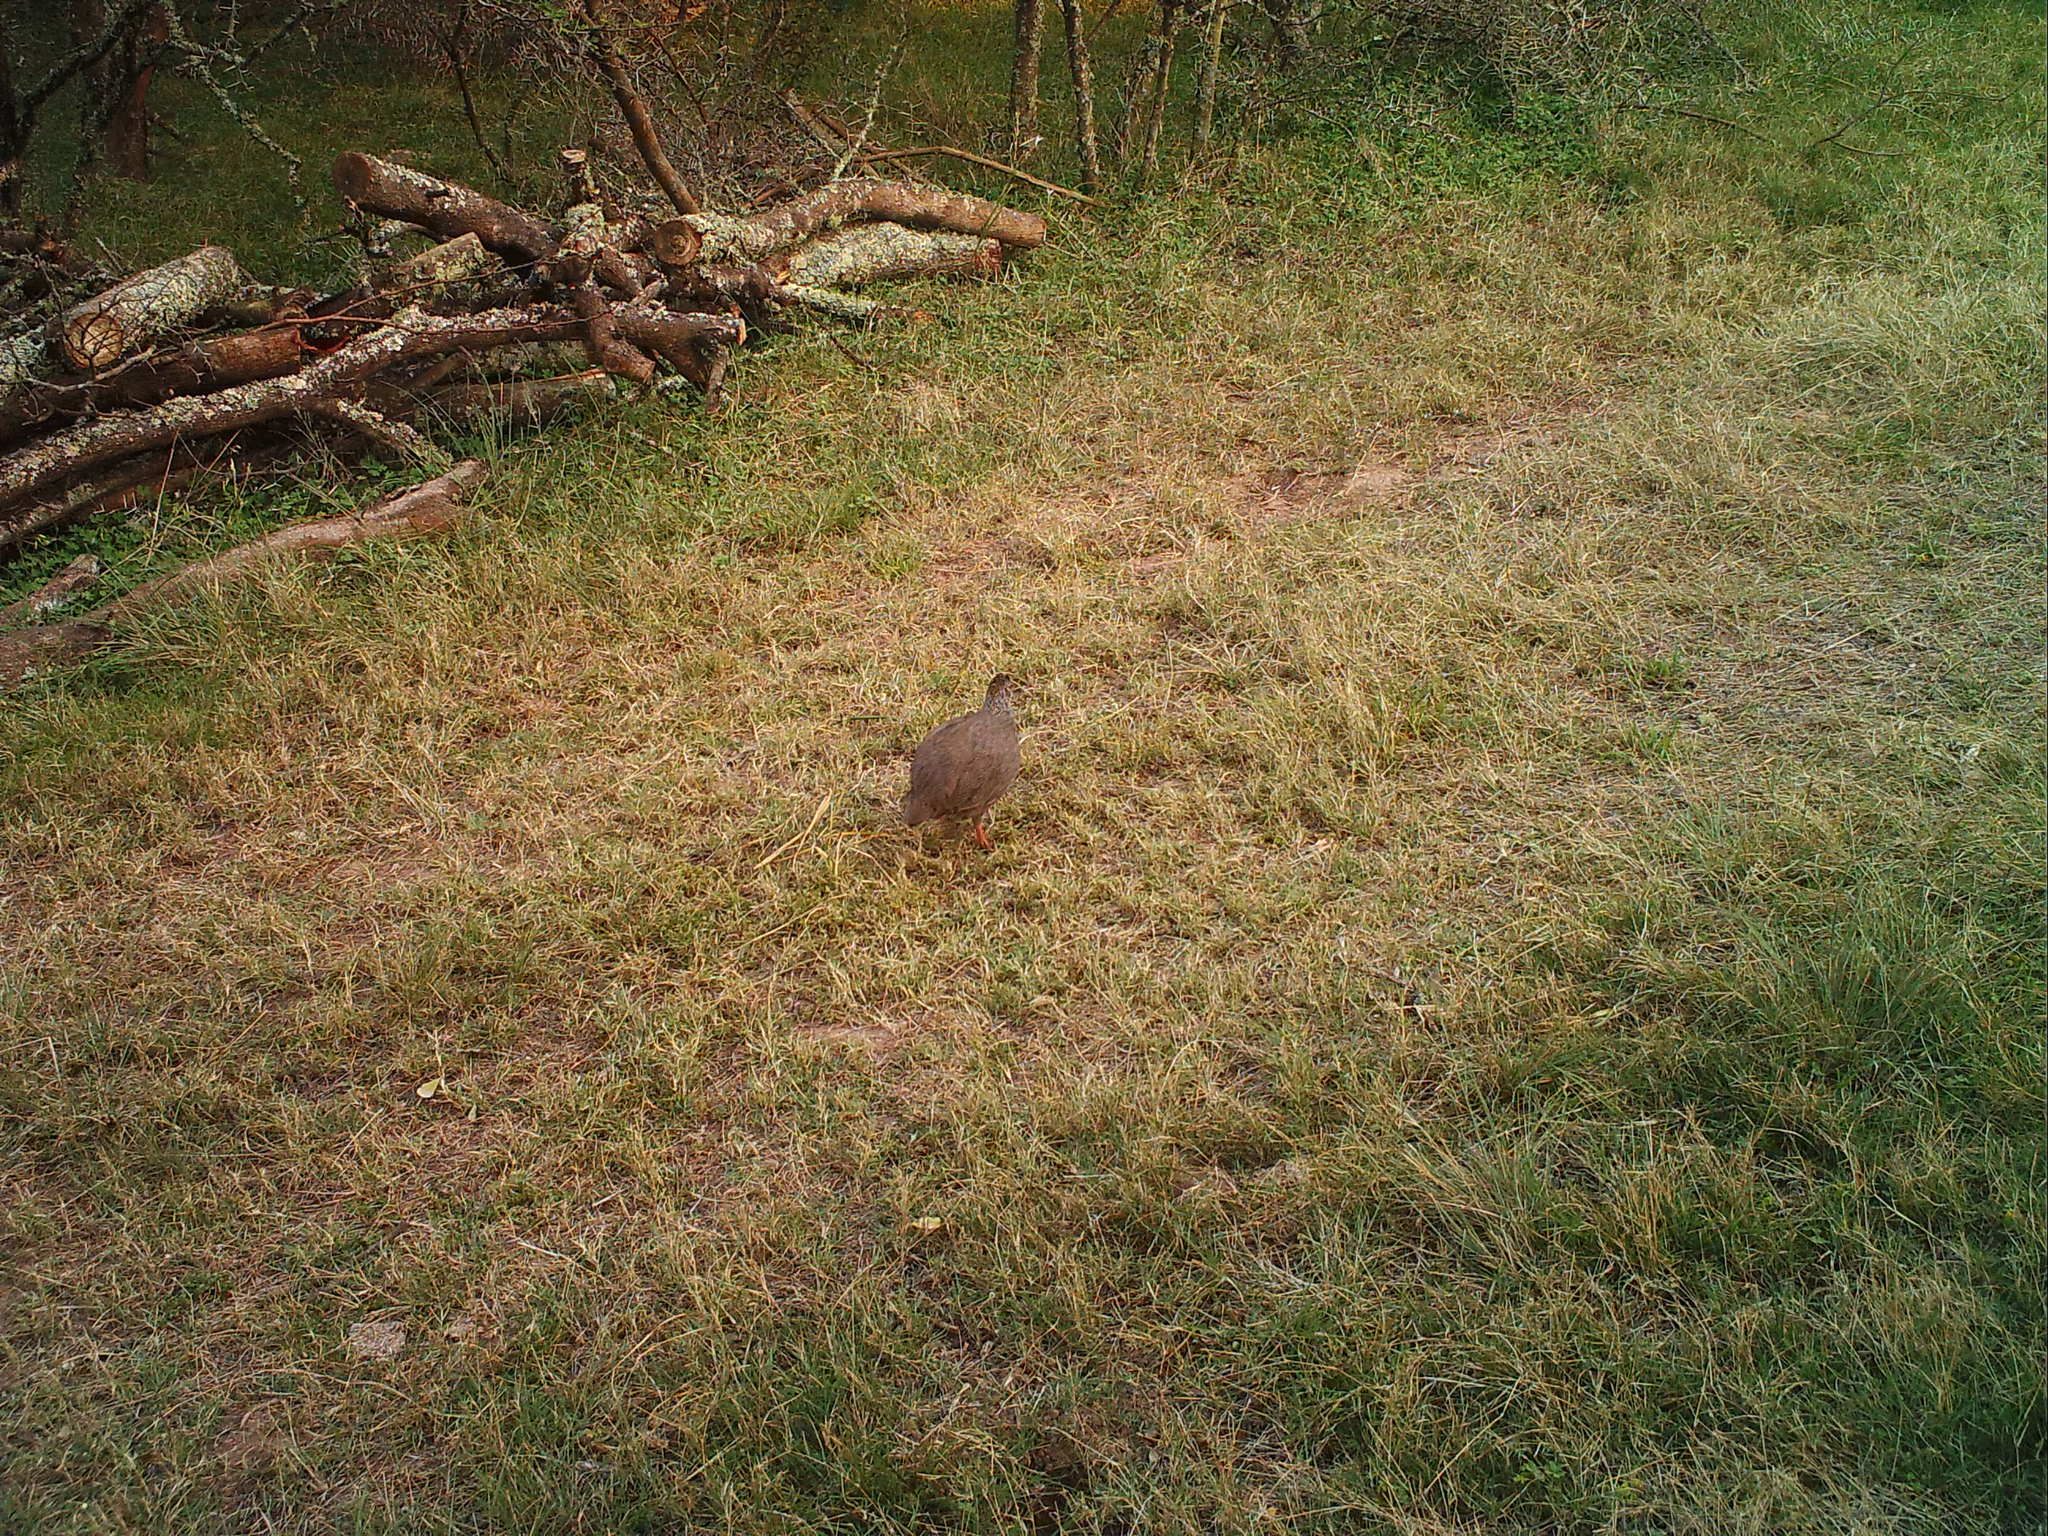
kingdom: Animalia
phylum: Chordata
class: Aves
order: Galliformes
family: Phasianidae
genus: Pternistis
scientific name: Pternistis capensis
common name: Cape spurfowl
